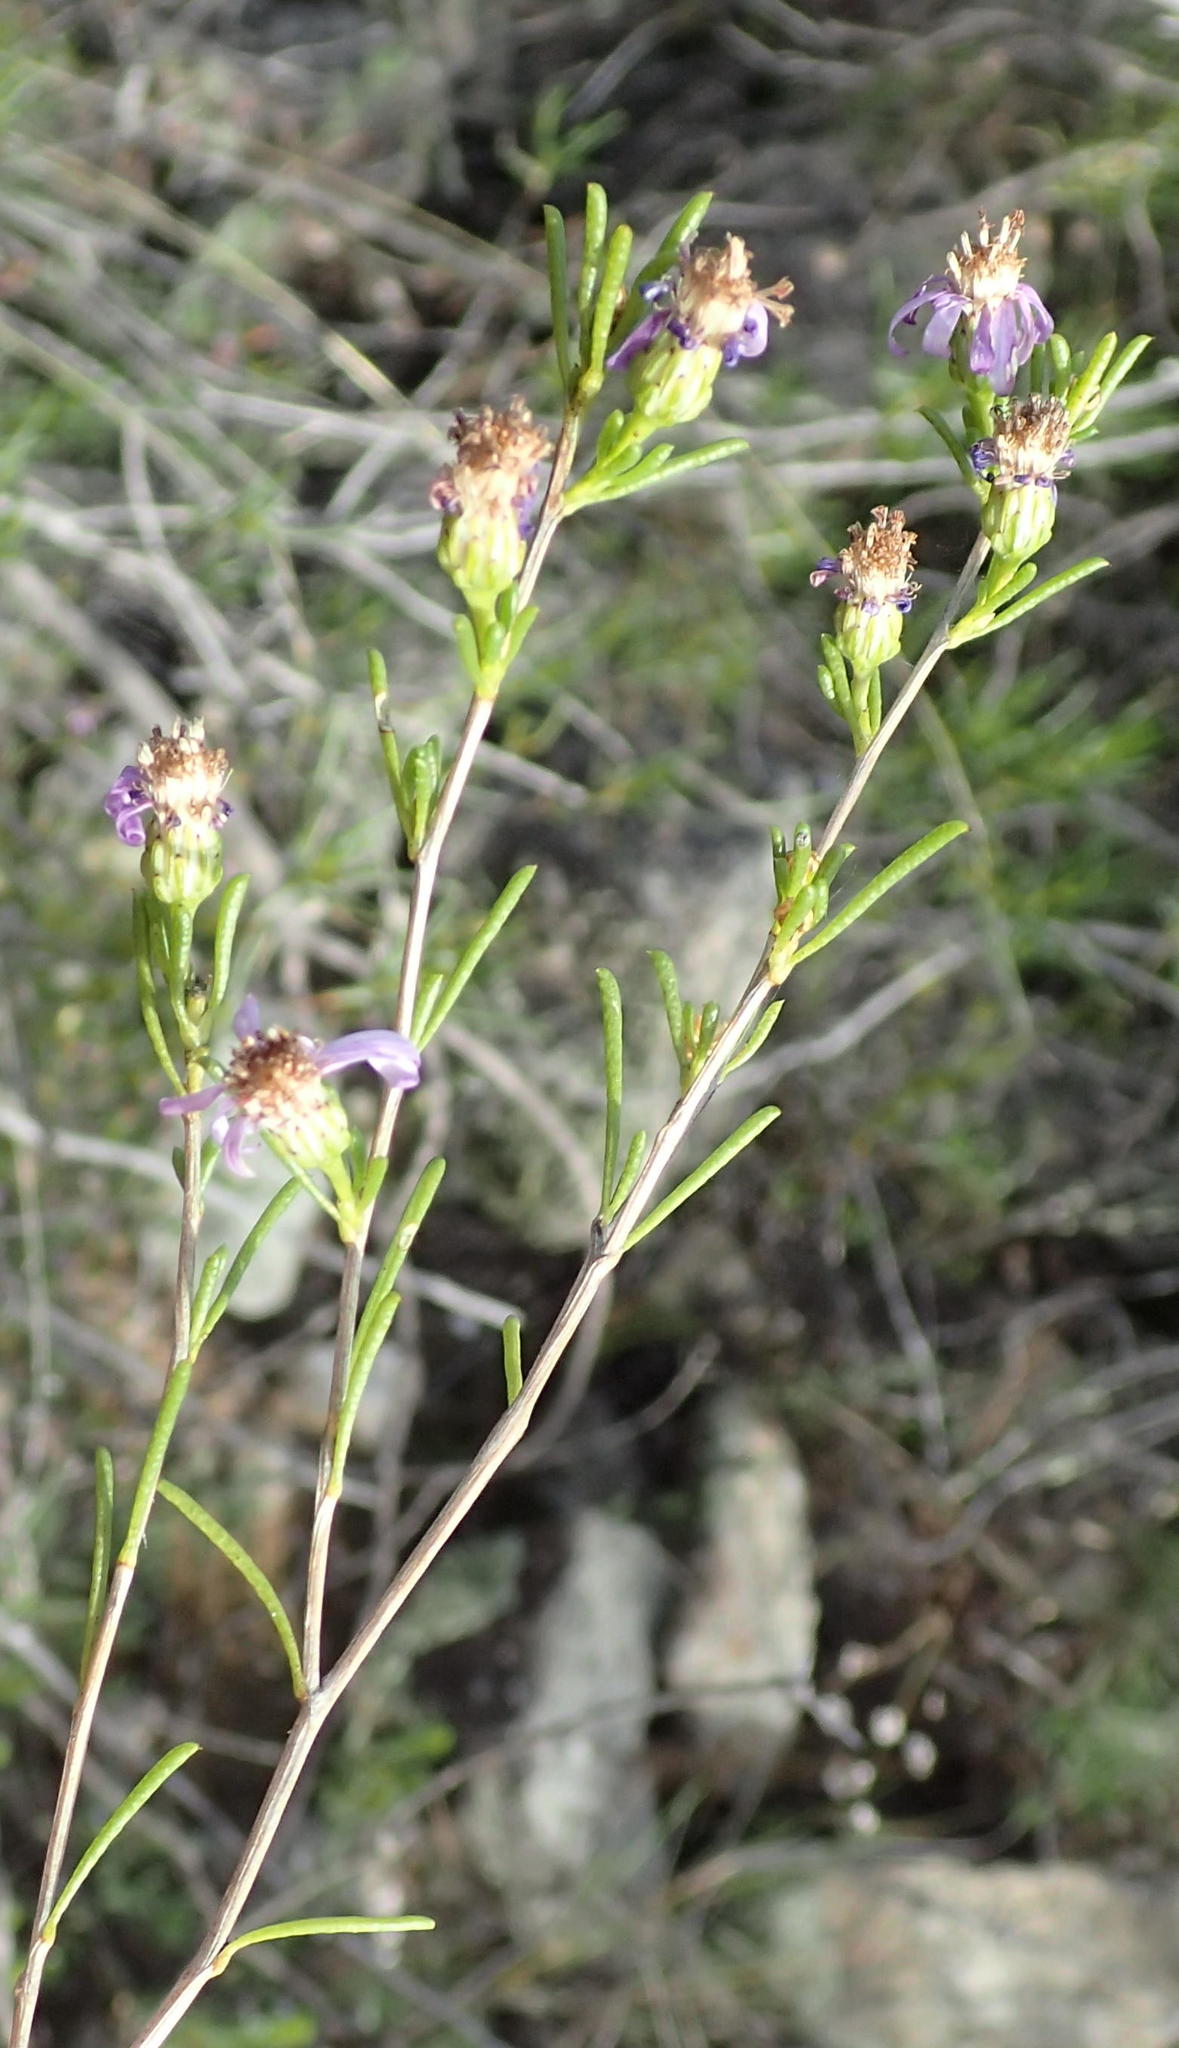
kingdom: Plantae
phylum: Tracheophyta
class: Magnoliopsida
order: Asterales
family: Asteraceae
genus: Felicia
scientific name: Felicia filifolia
